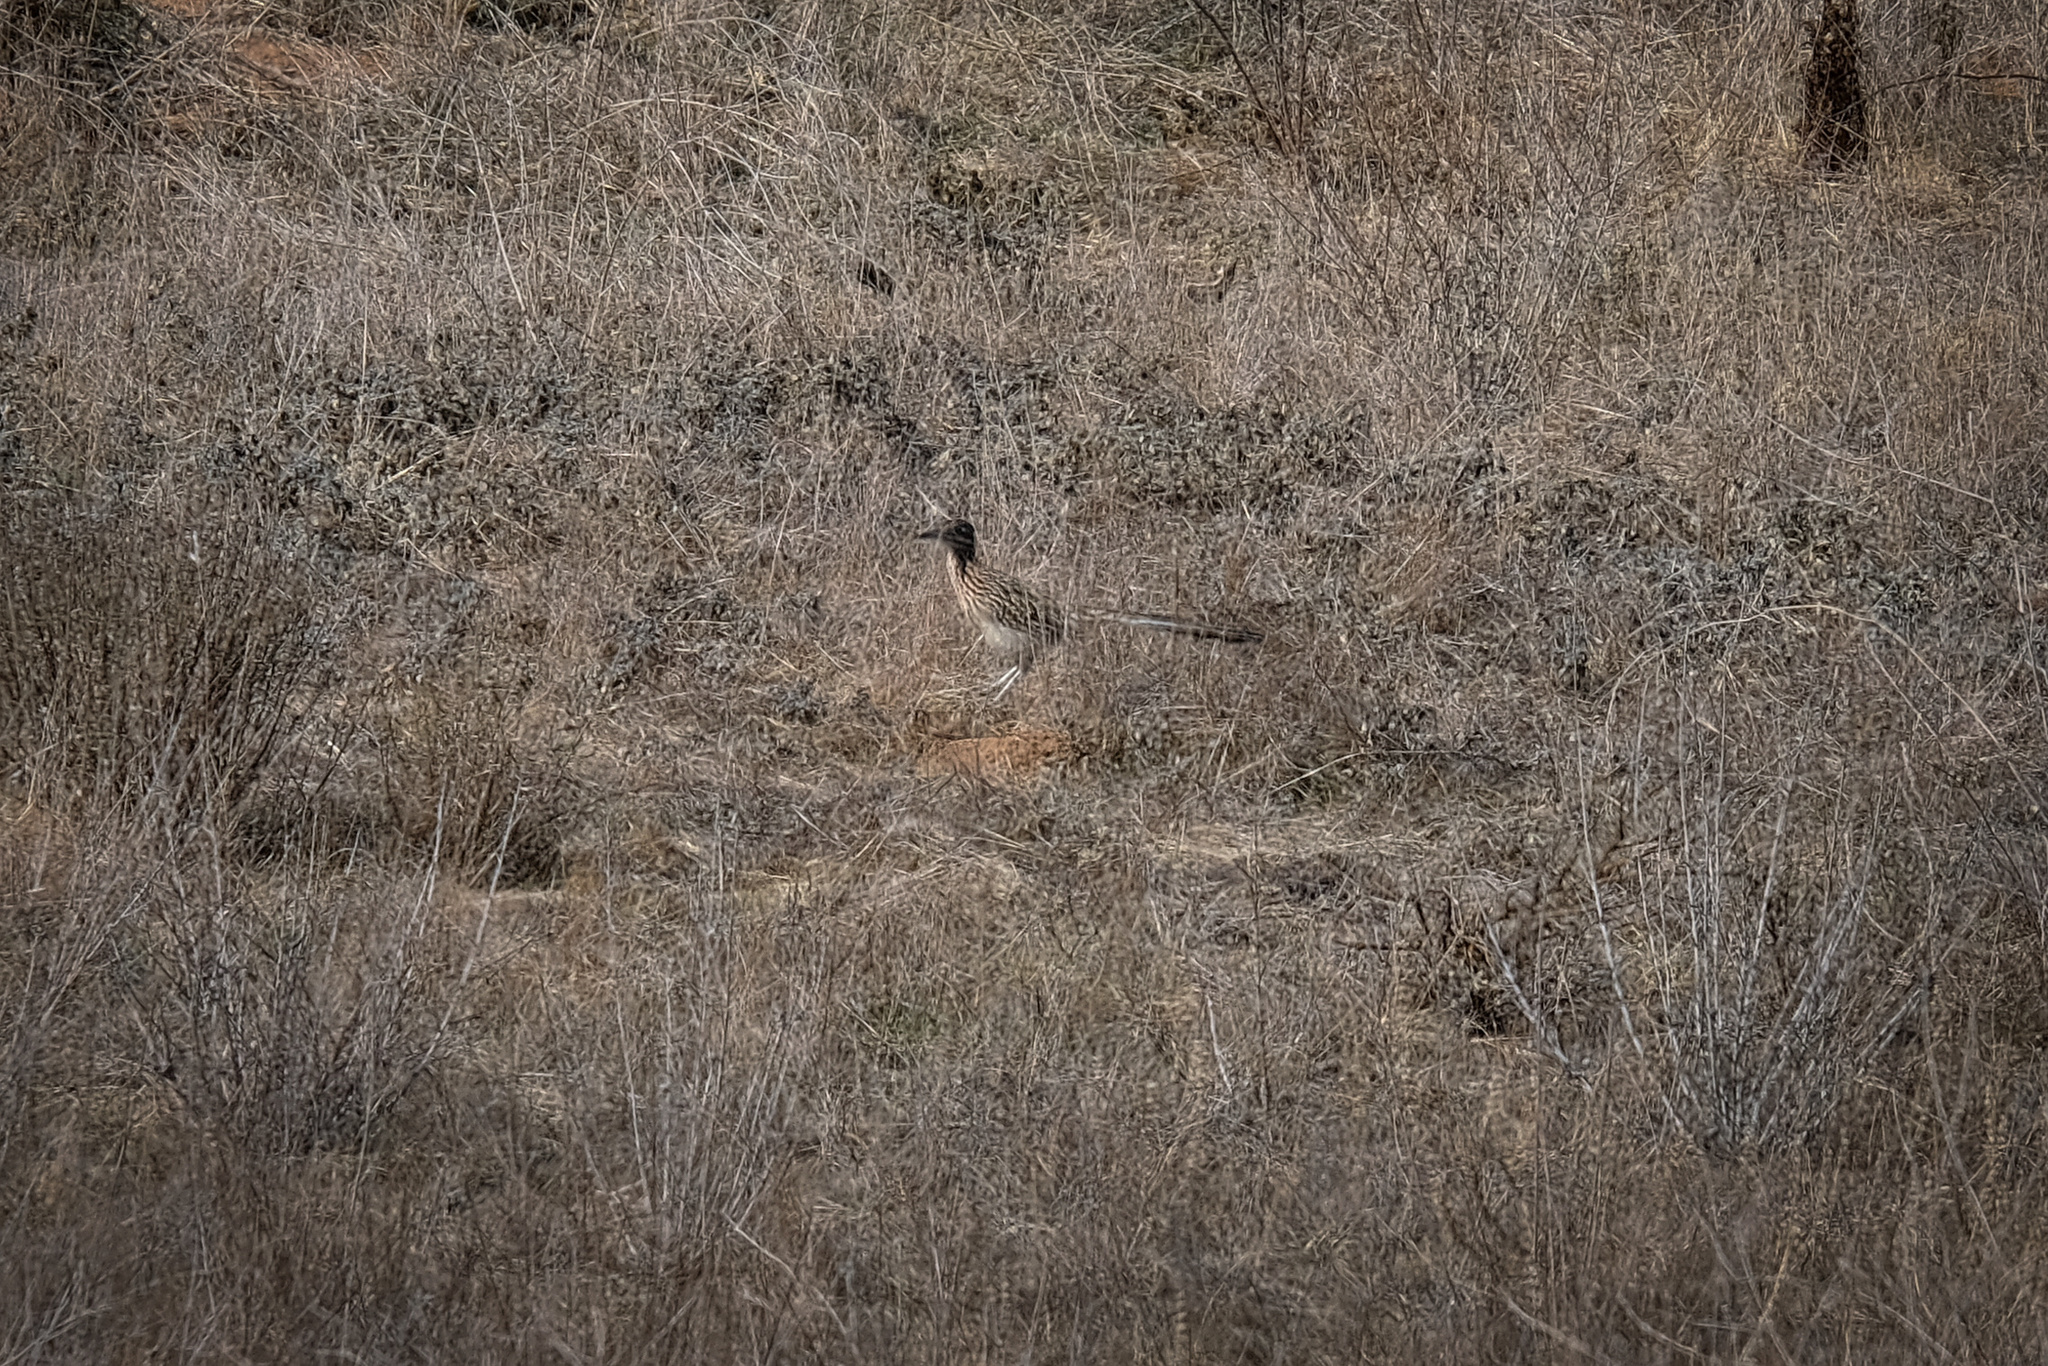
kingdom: Animalia
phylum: Chordata
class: Aves
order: Cuculiformes
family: Cuculidae
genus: Geococcyx
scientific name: Geococcyx californianus
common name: Greater roadrunner
